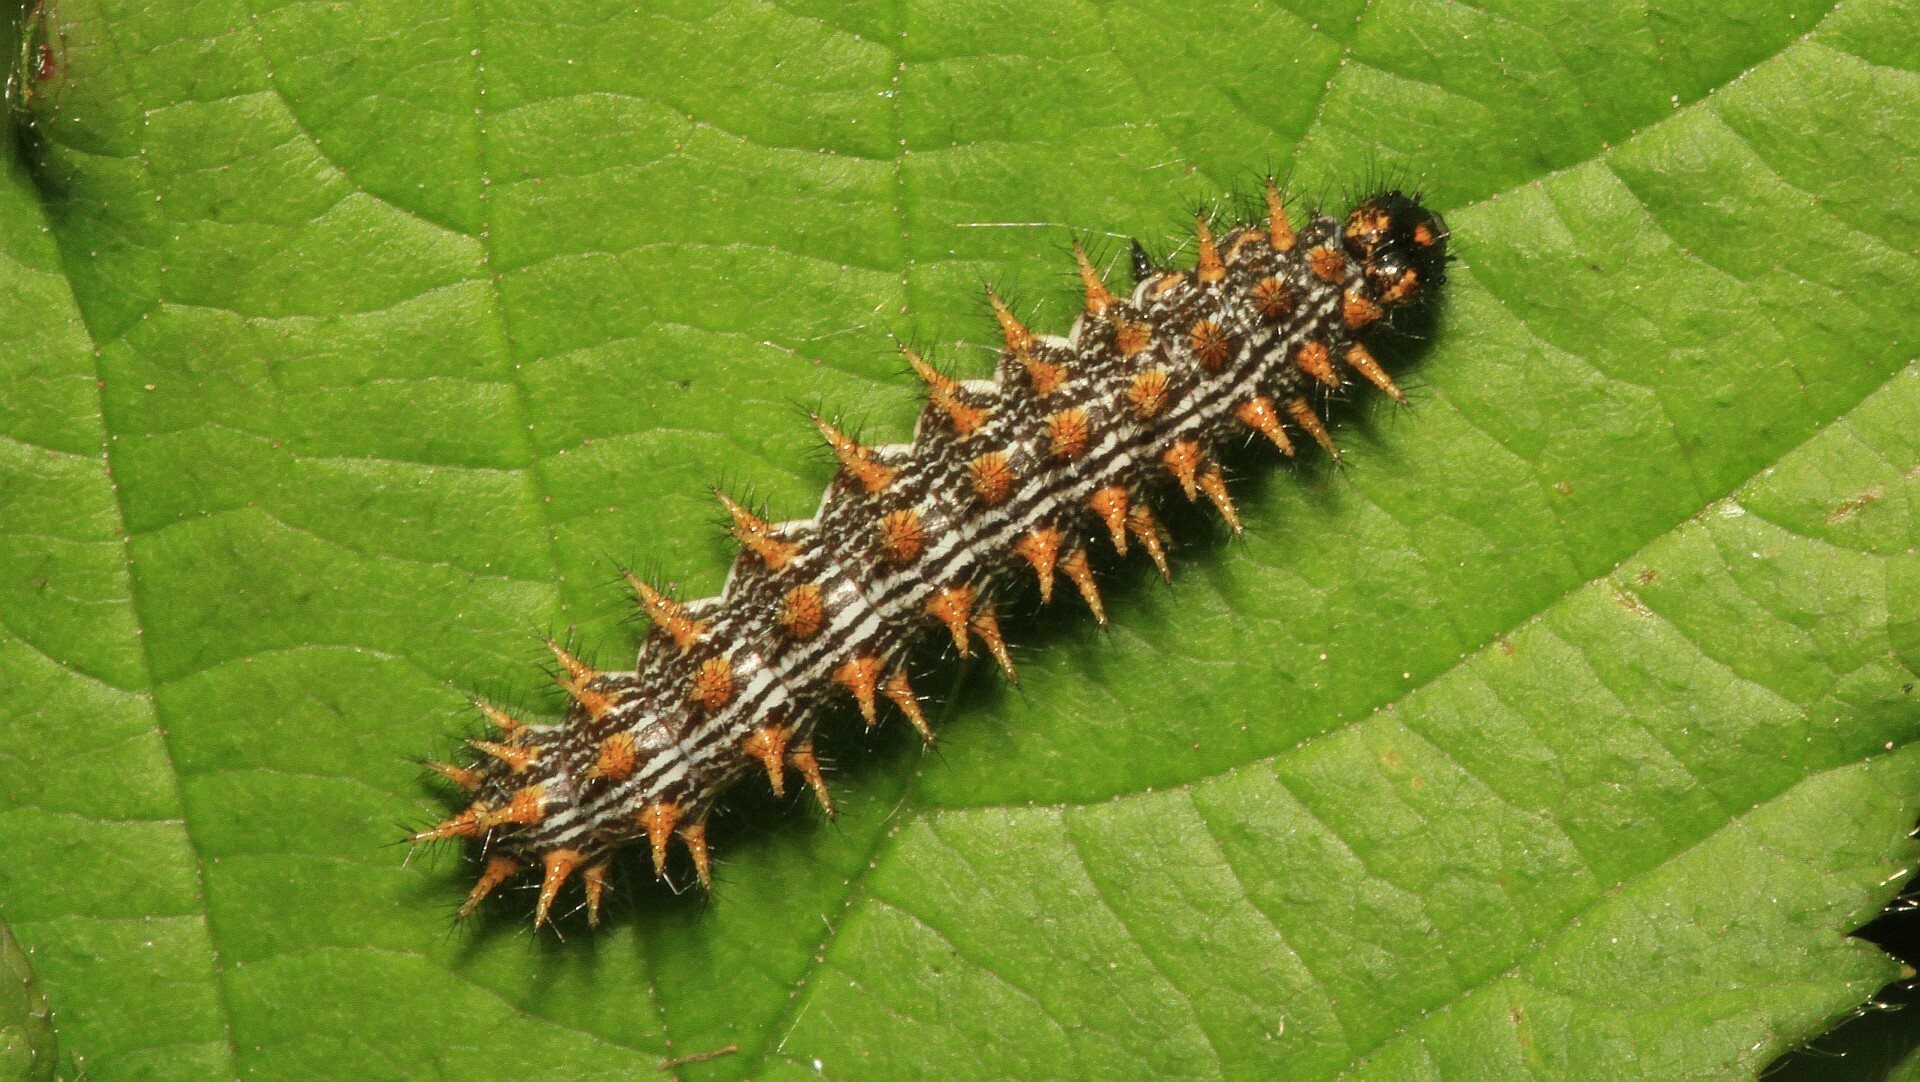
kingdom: Animalia
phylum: Arthropoda
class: Insecta
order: Lepidoptera
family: Nymphalidae
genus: Brenthis
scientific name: Brenthis daphne
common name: Marbled fritillary
